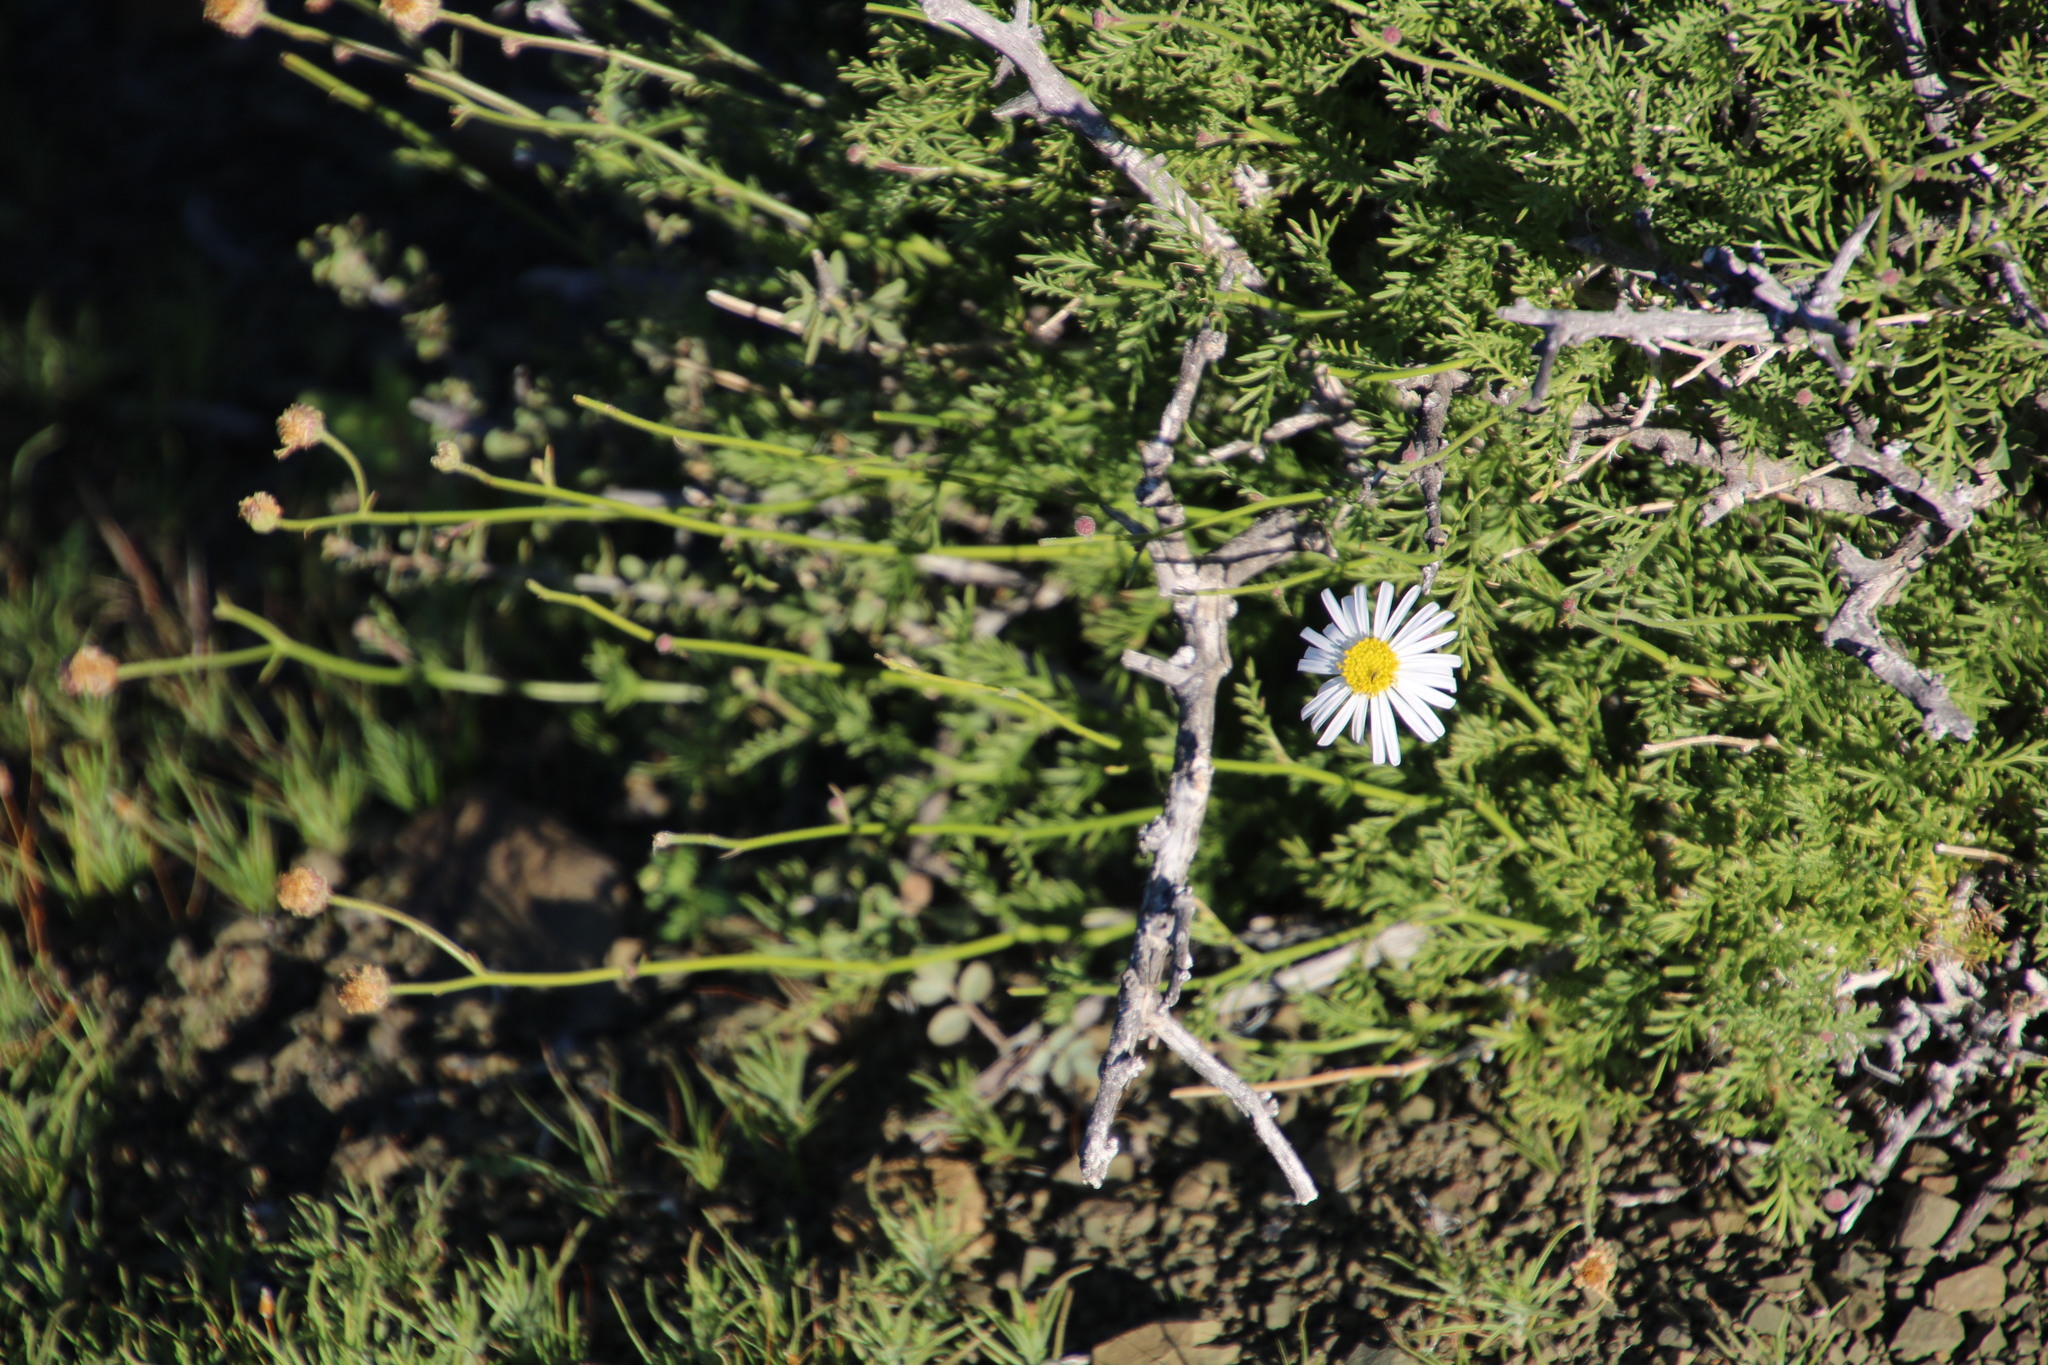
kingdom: Plantae
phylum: Tracheophyta
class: Magnoliopsida
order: Asterales
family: Asteraceae
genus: Garuleum
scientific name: Garuleum bipinnatum
